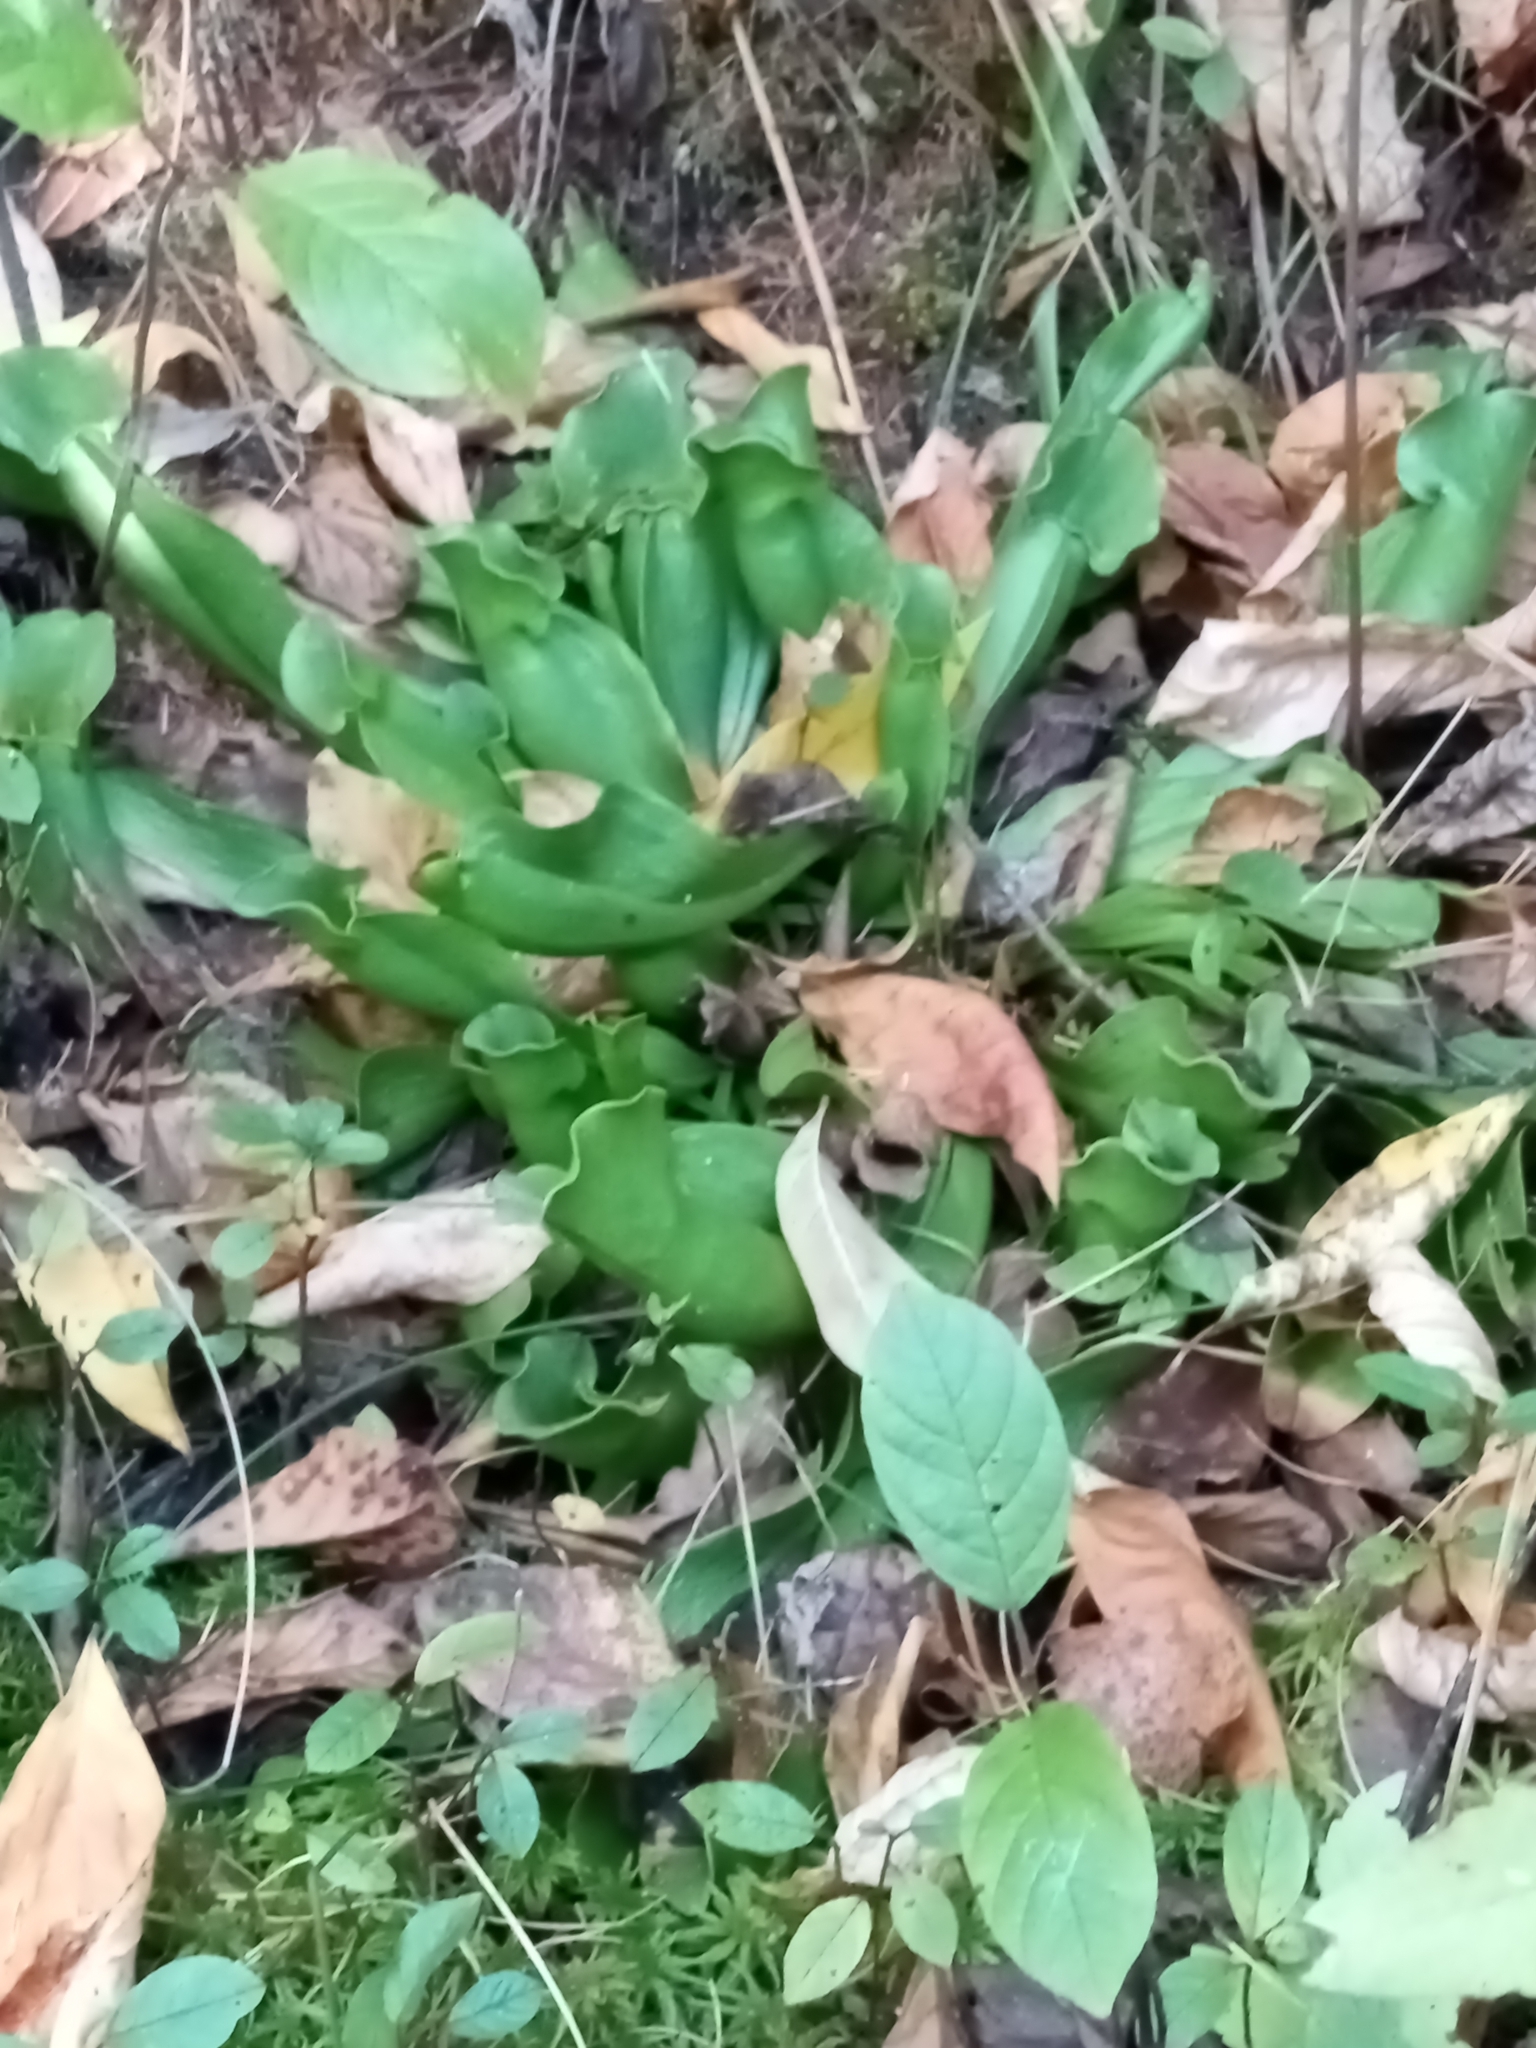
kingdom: Plantae
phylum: Tracheophyta
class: Magnoliopsida
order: Ericales
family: Sarraceniaceae
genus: Sarracenia
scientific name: Sarracenia purpurea
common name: Pitcherplant
